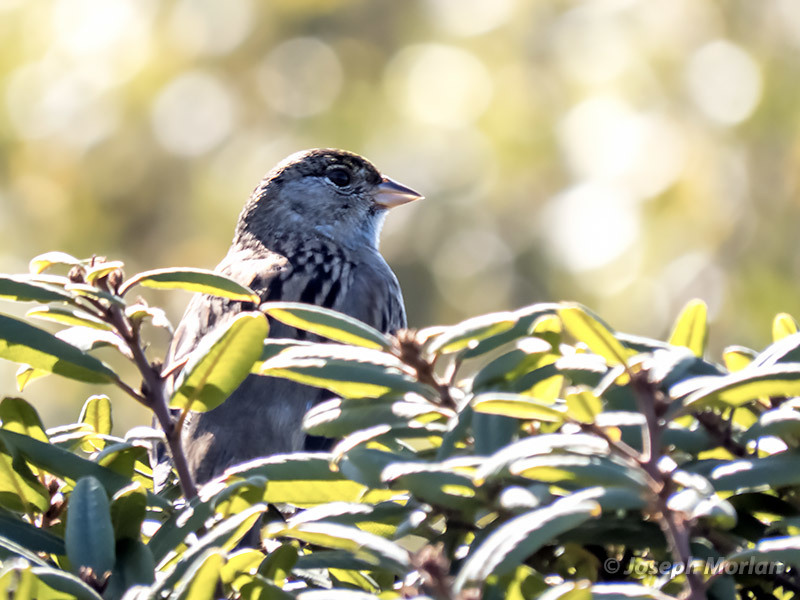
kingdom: Animalia
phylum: Chordata
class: Aves
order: Passeriformes
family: Passerellidae
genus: Zonotrichia
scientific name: Zonotrichia atricapilla
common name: Golden-crowned sparrow
